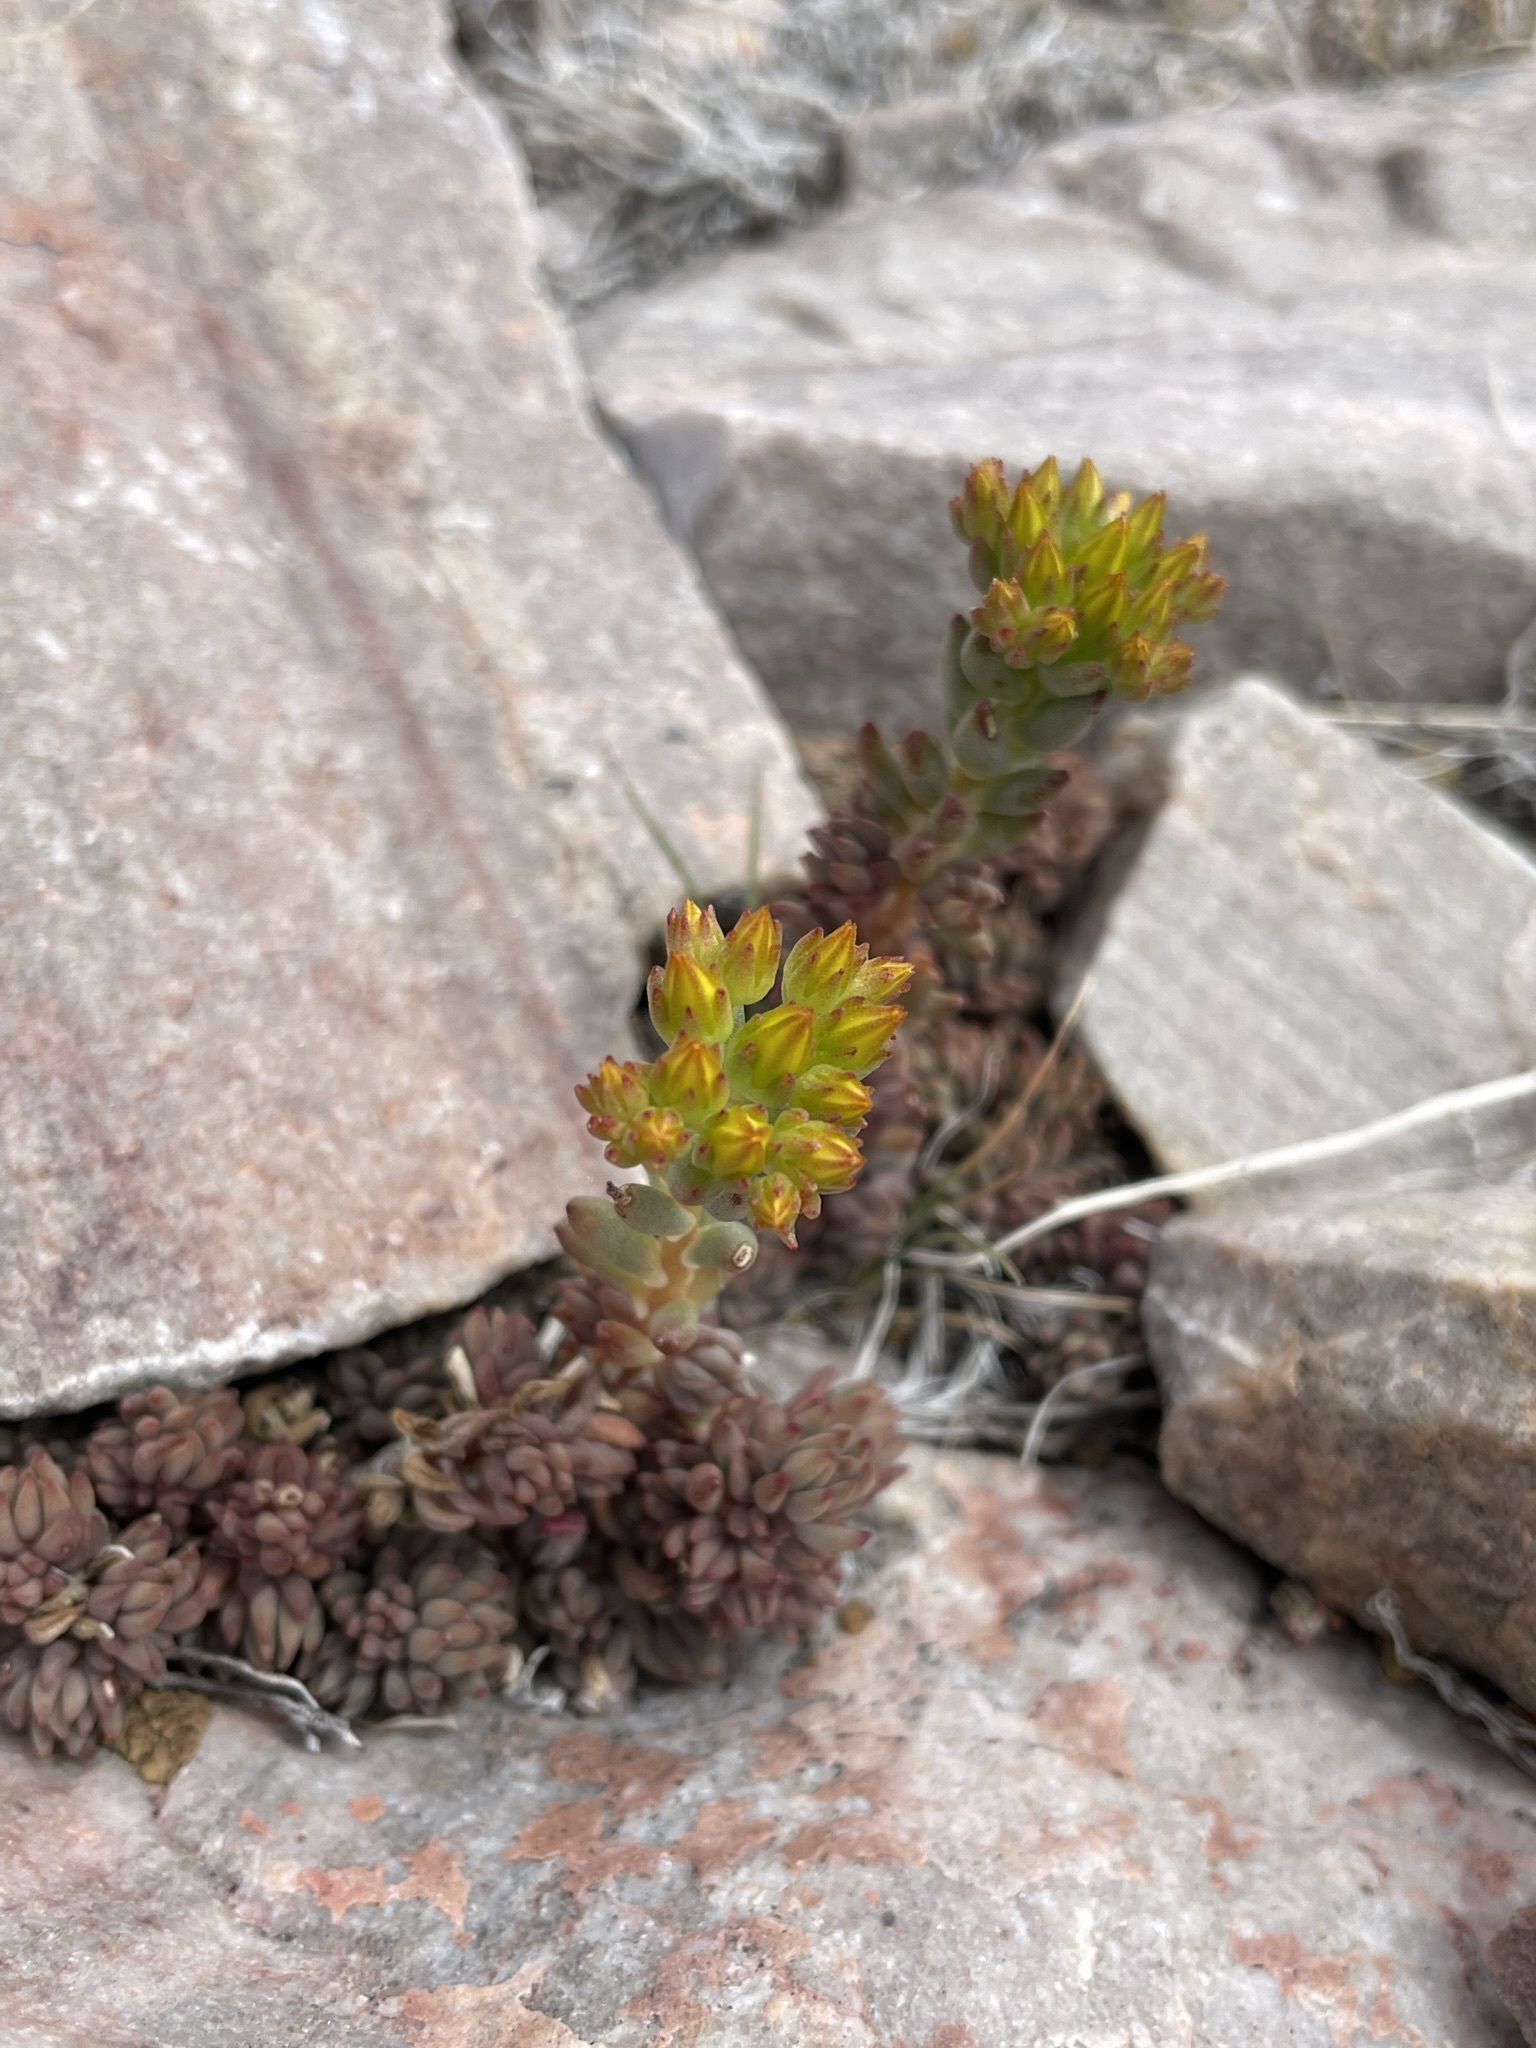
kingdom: Plantae
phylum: Tracheophyta
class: Magnoliopsida
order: Saxifragales
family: Crassulaceae
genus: Sedum
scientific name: Sedum lanceolatum
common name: Common stonecrop
